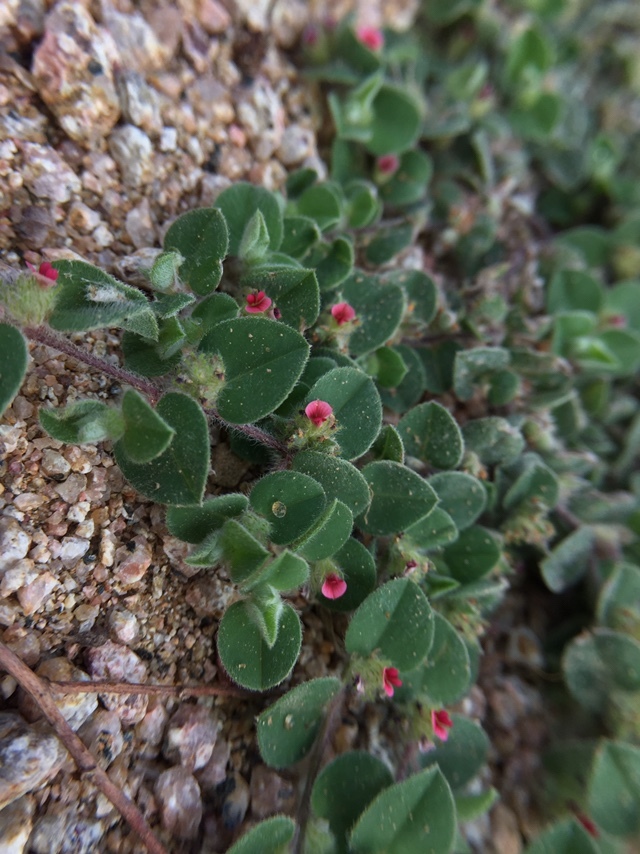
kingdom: Plantae
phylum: Tracheophyta
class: Magnoliopsida
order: Fabales
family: Fabaceae
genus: Indigofera
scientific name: Indigofera cordifolia
